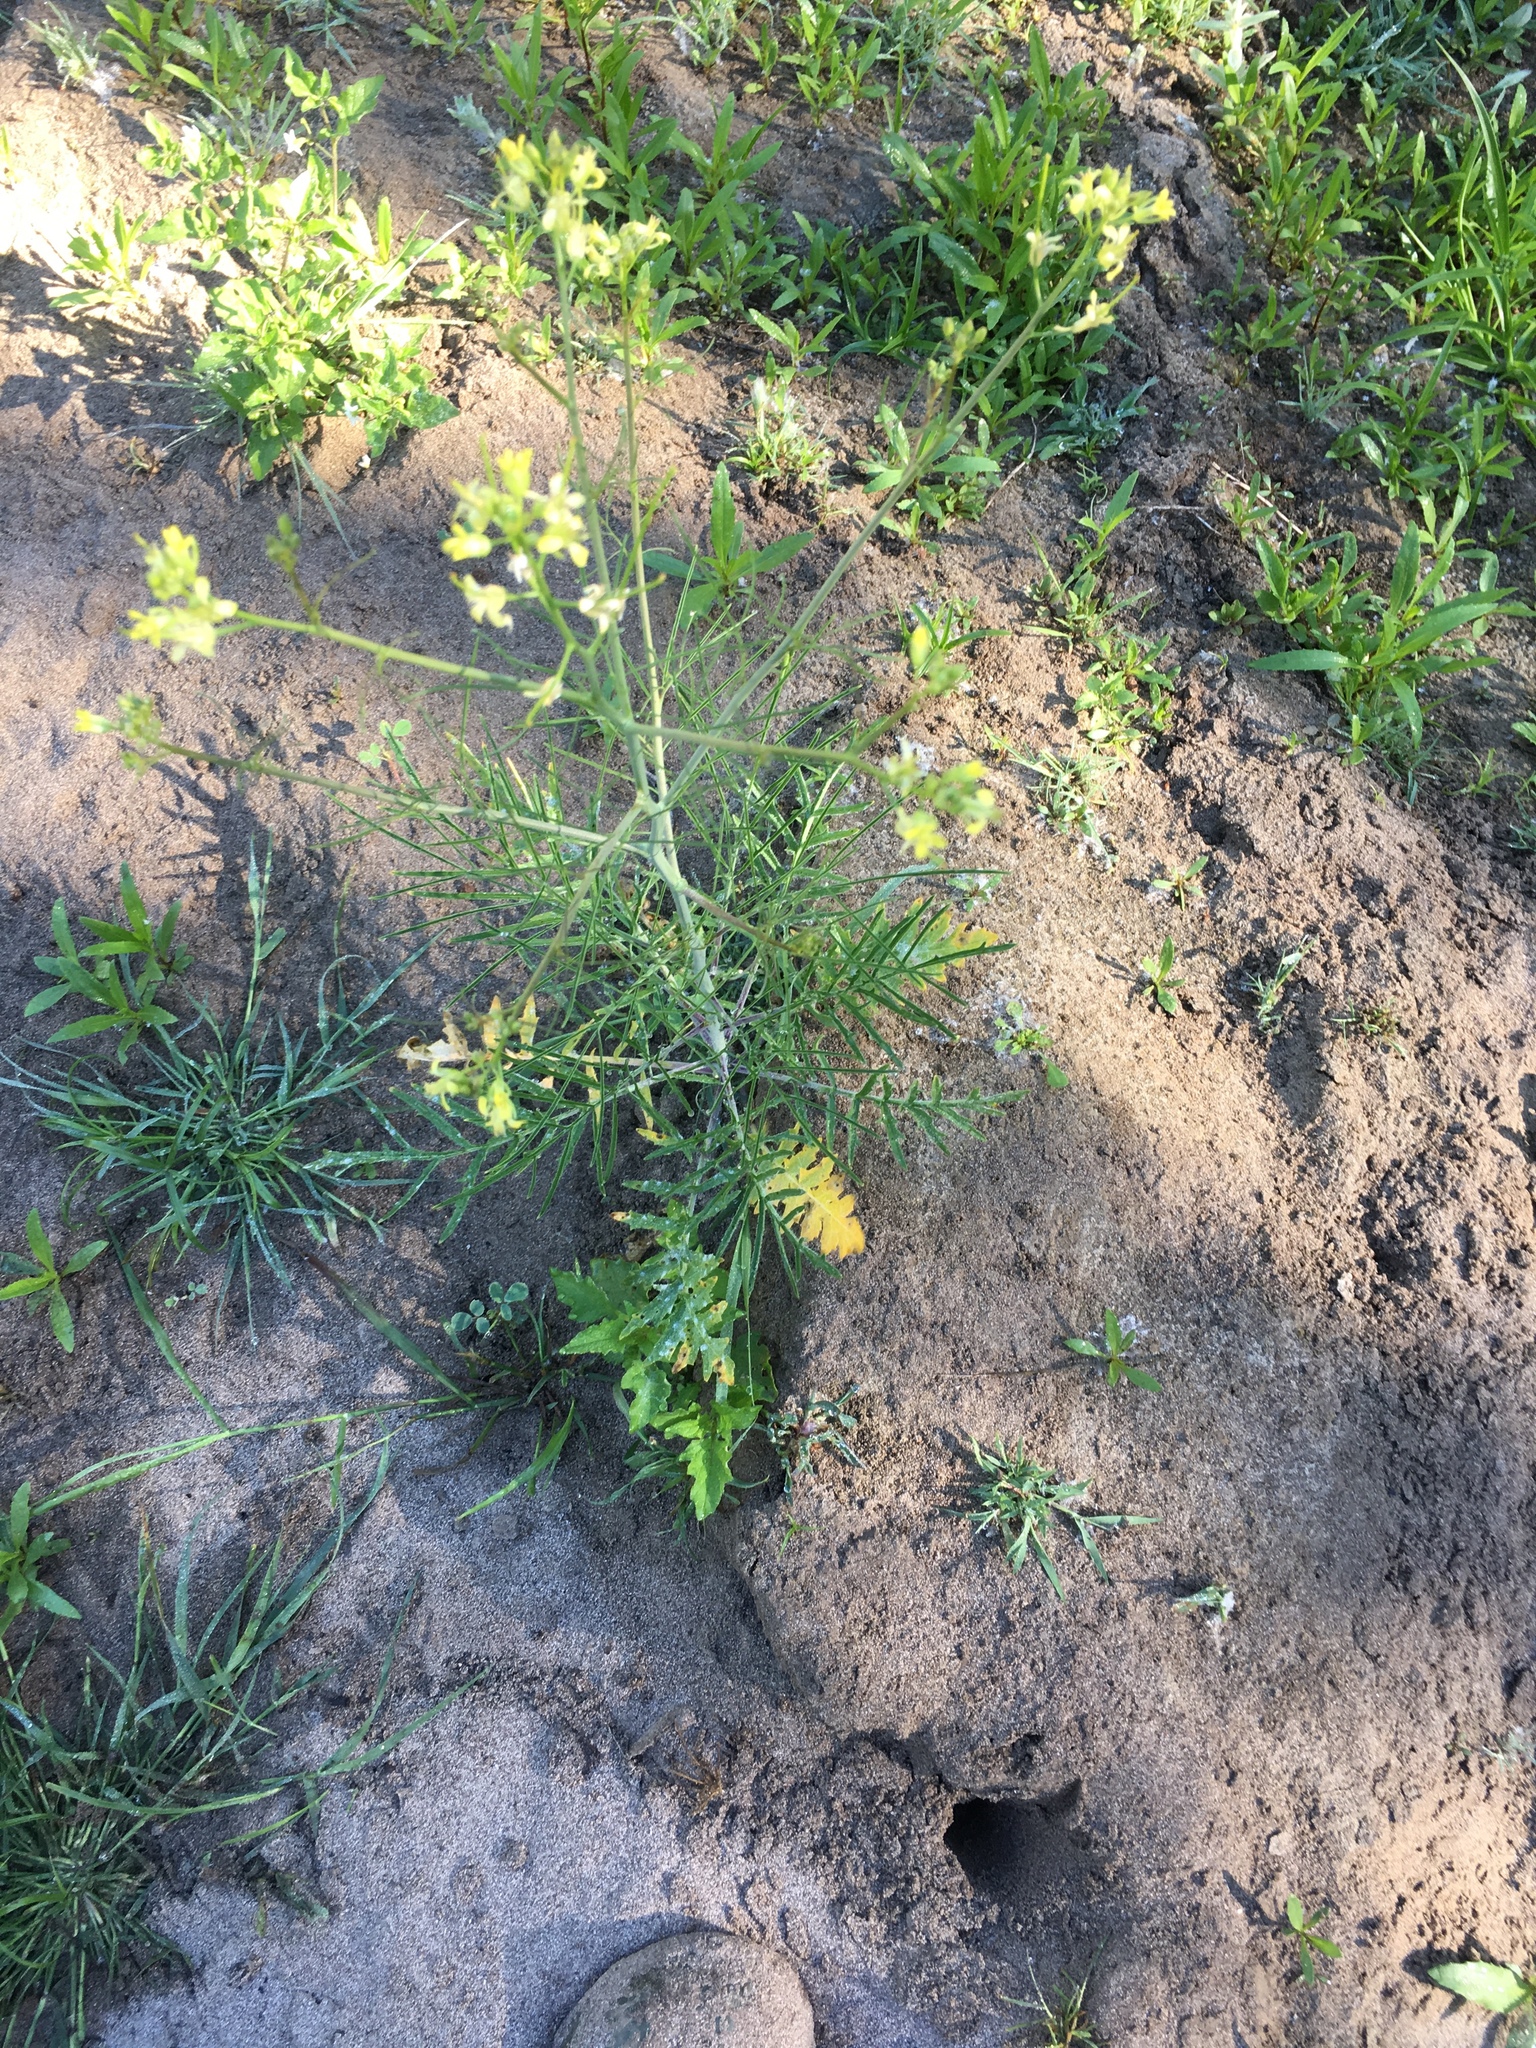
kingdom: Plantae
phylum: Tracheophyta
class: Magnoliopsida
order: Brassicales
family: Brassicaceae
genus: Sisymbrium
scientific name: Sisymbrium altissimum
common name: Tall rocket
